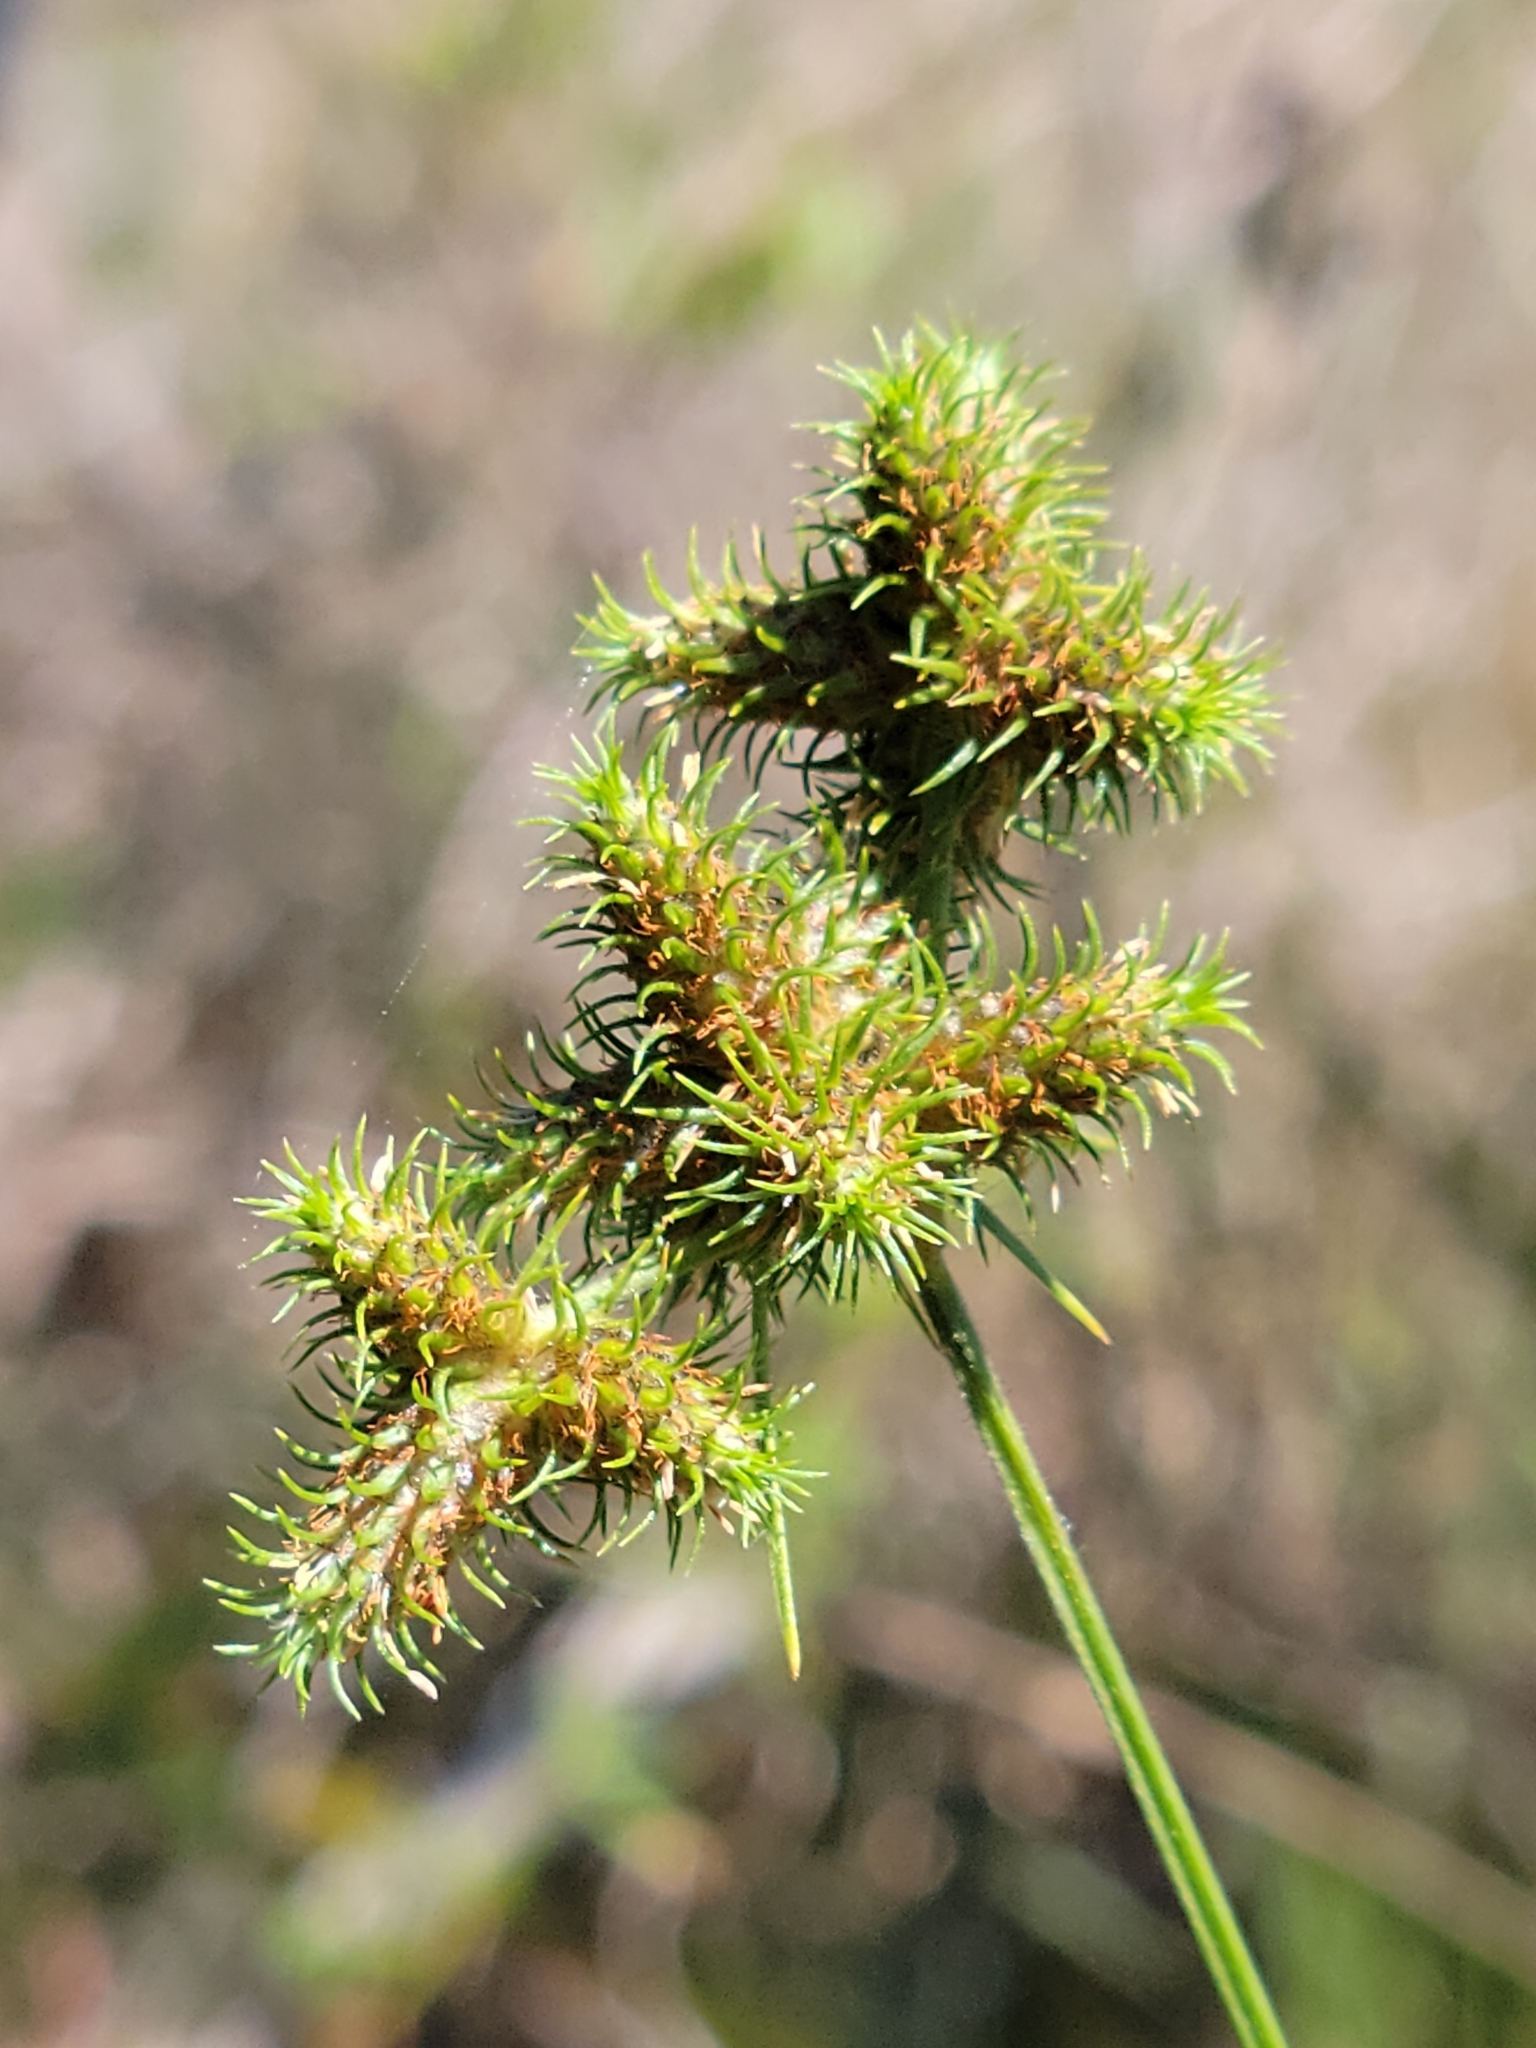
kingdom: Plantae
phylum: Tracheophyta
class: Liliopsida
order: Poales
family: Cyperaceae
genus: Fuirena
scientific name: Fuirena breviseta
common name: Saltmarsh umbrella sedge
